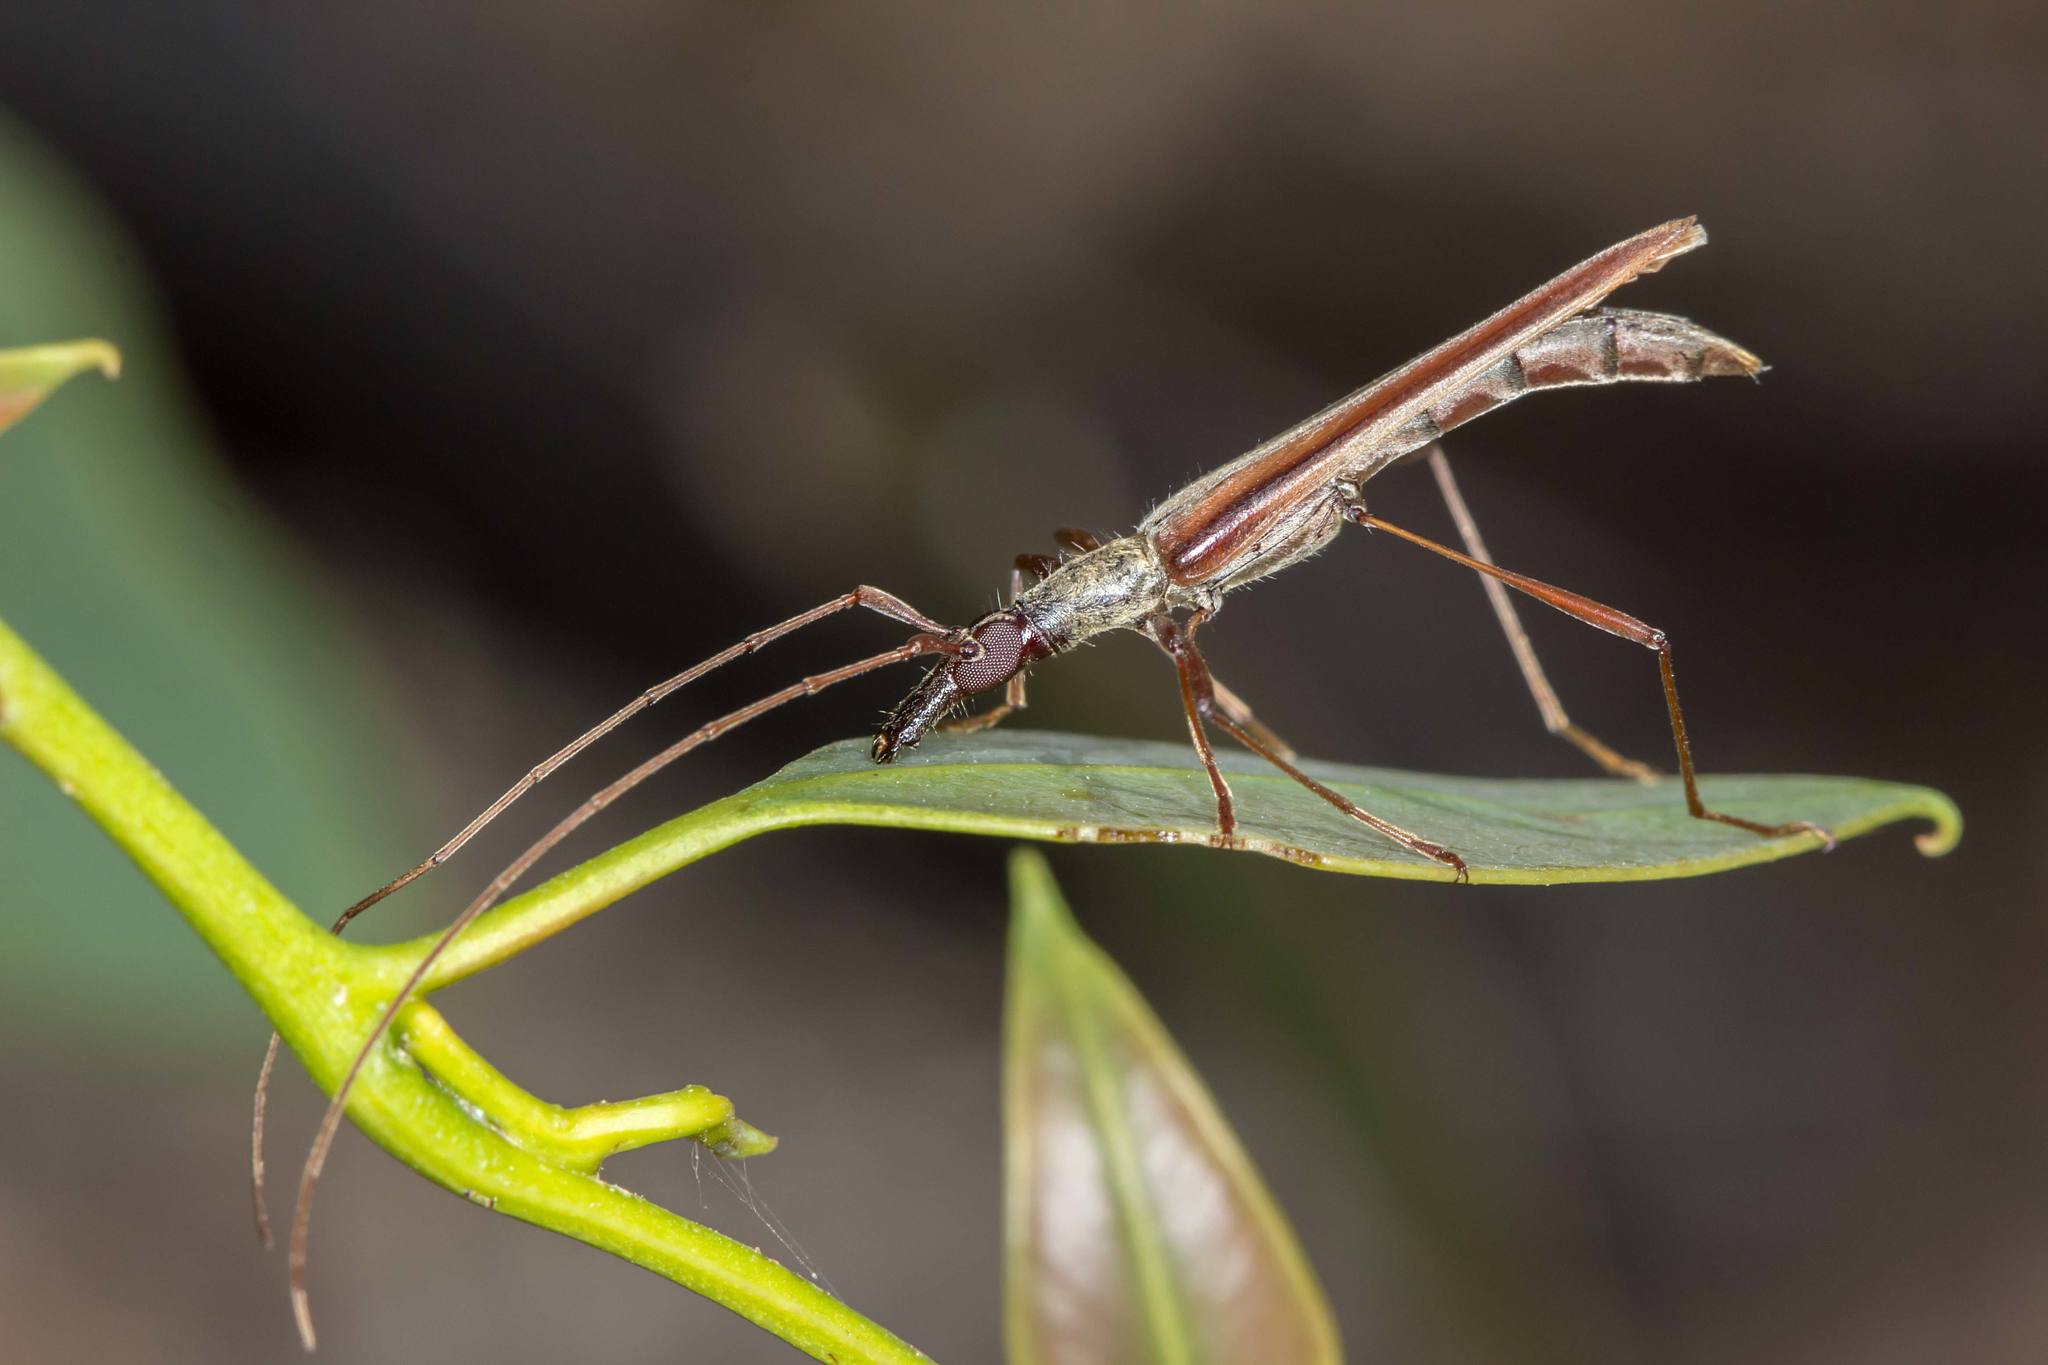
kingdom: Animalia
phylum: Arthropoda
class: Insecta
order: Coleoptera
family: Cerambycidae
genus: Rhinophthalmus
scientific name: Rhinophthalmus nasutus
